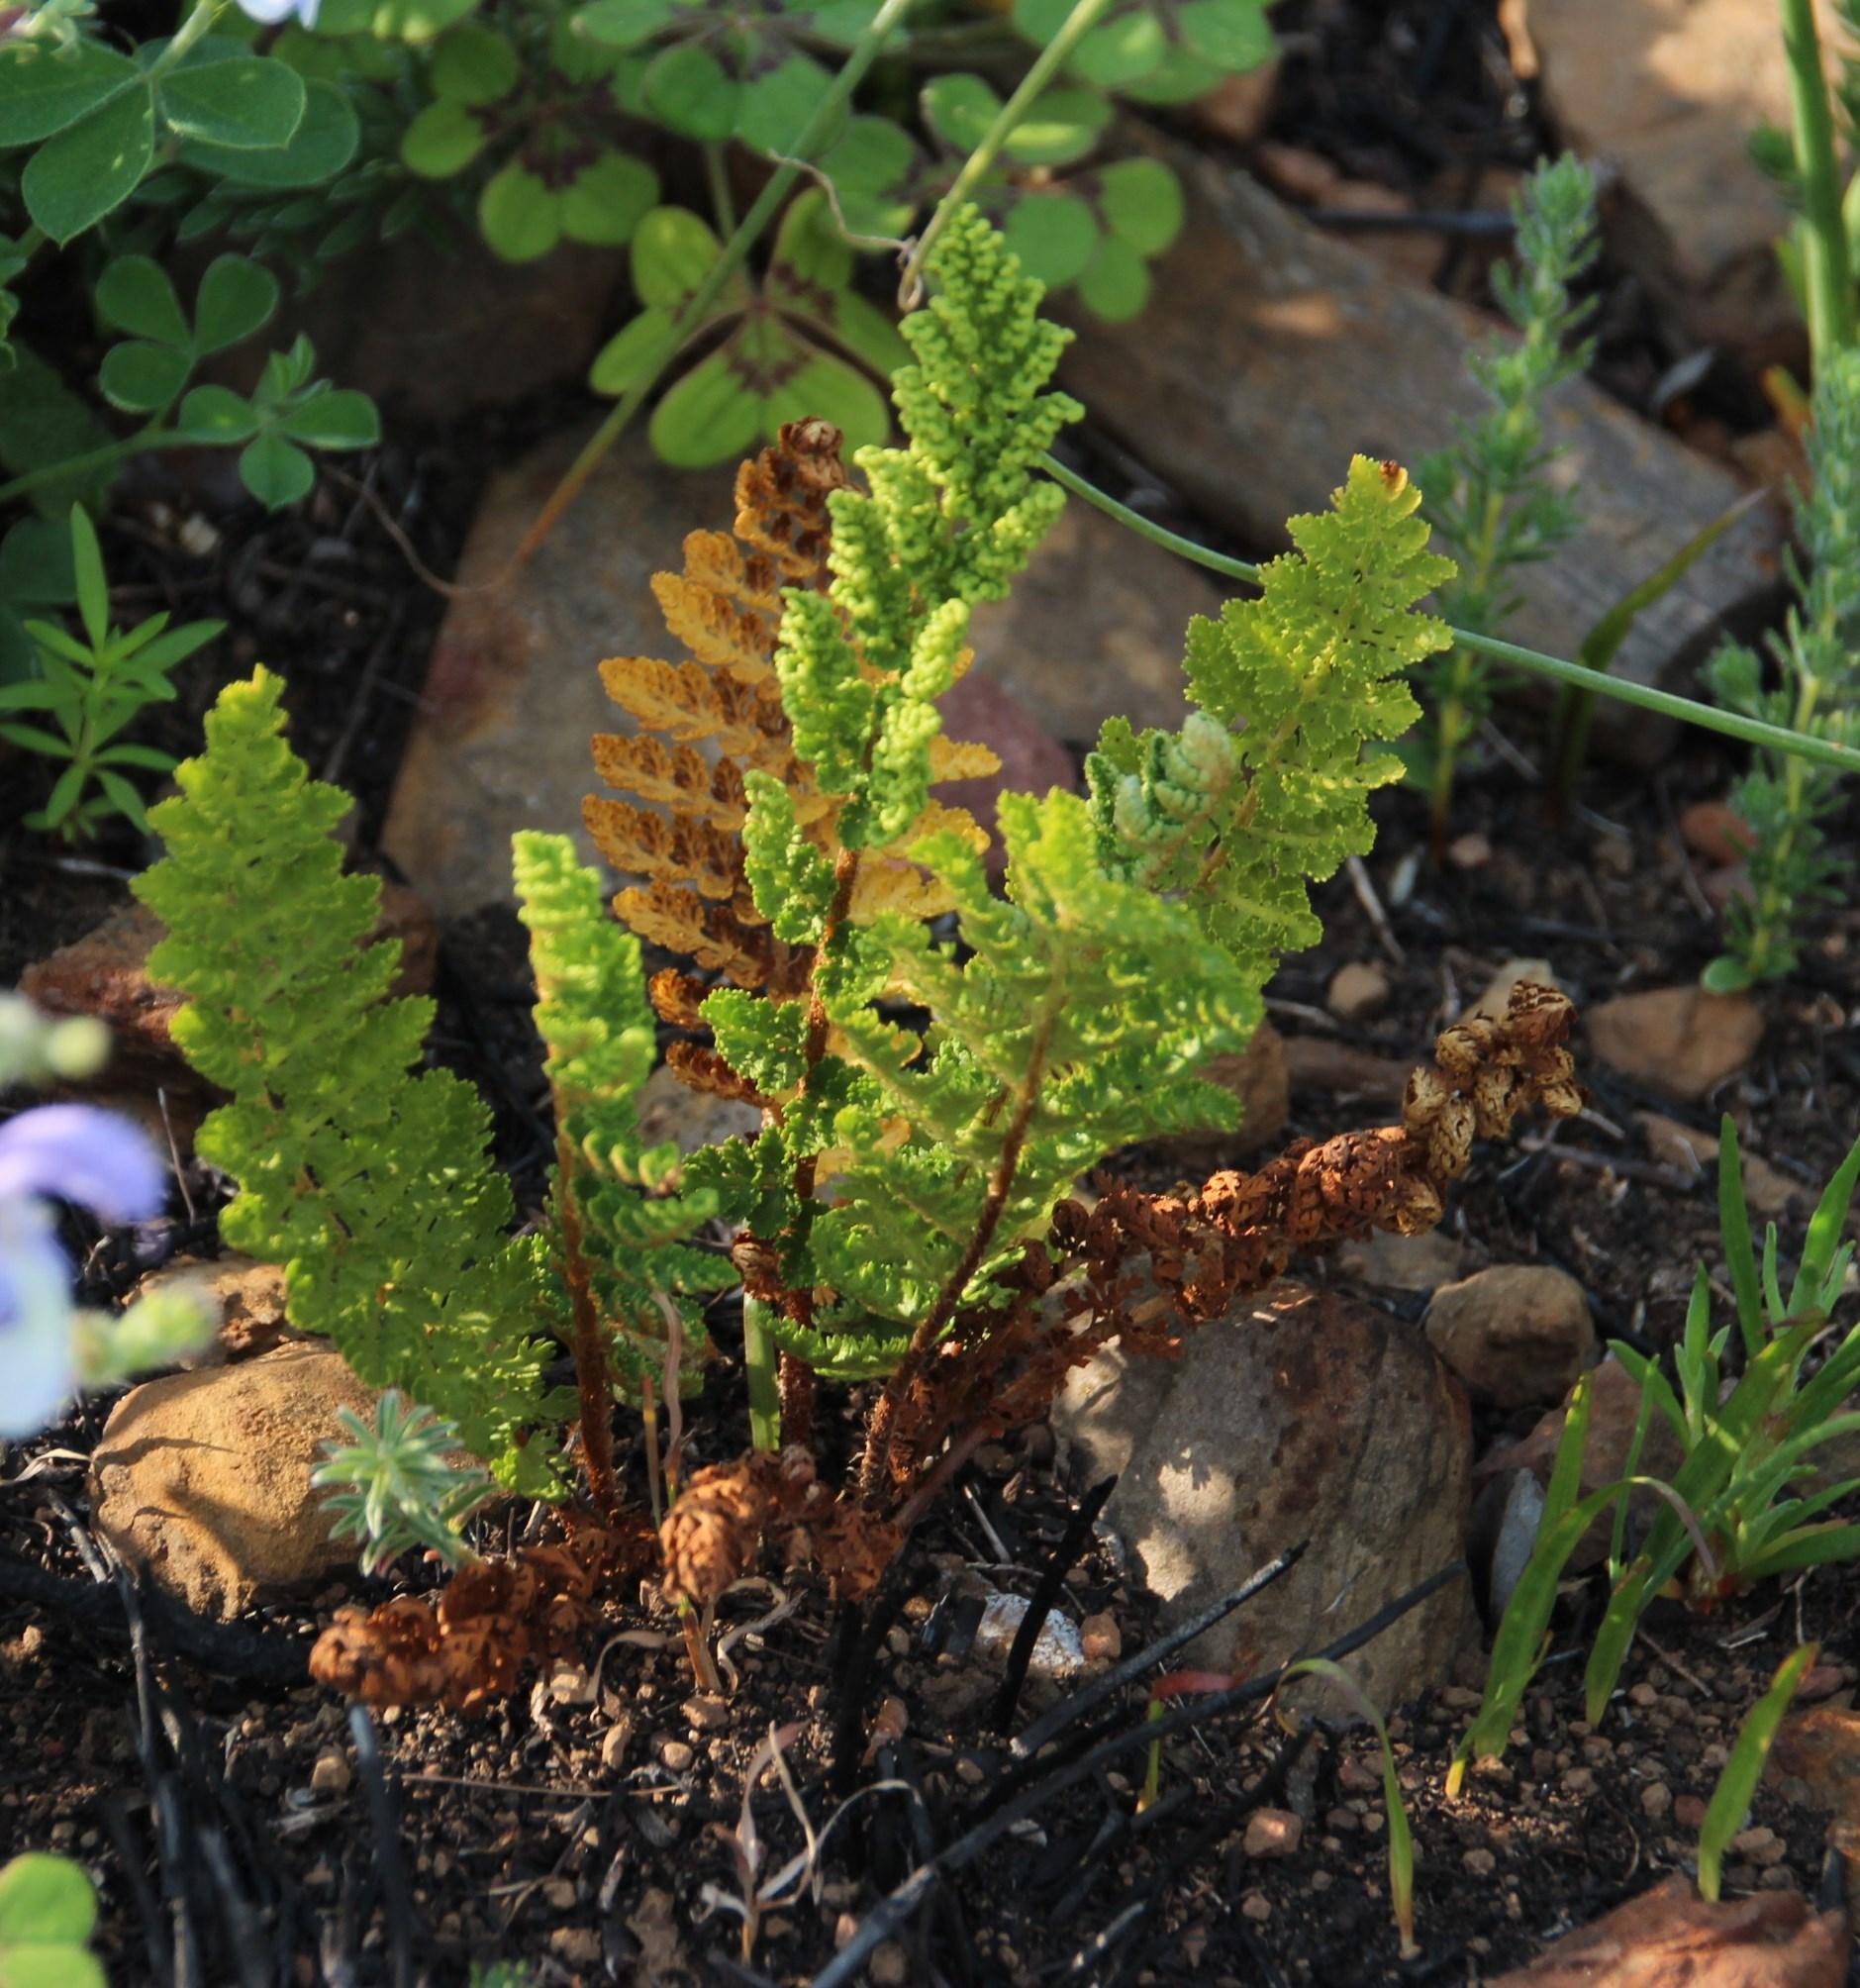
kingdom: Plantae
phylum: Tracheophyta
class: Polypodiopsida
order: Schizaeales
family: Anemiaceae
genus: Anemia
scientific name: Anemia caffrorum
